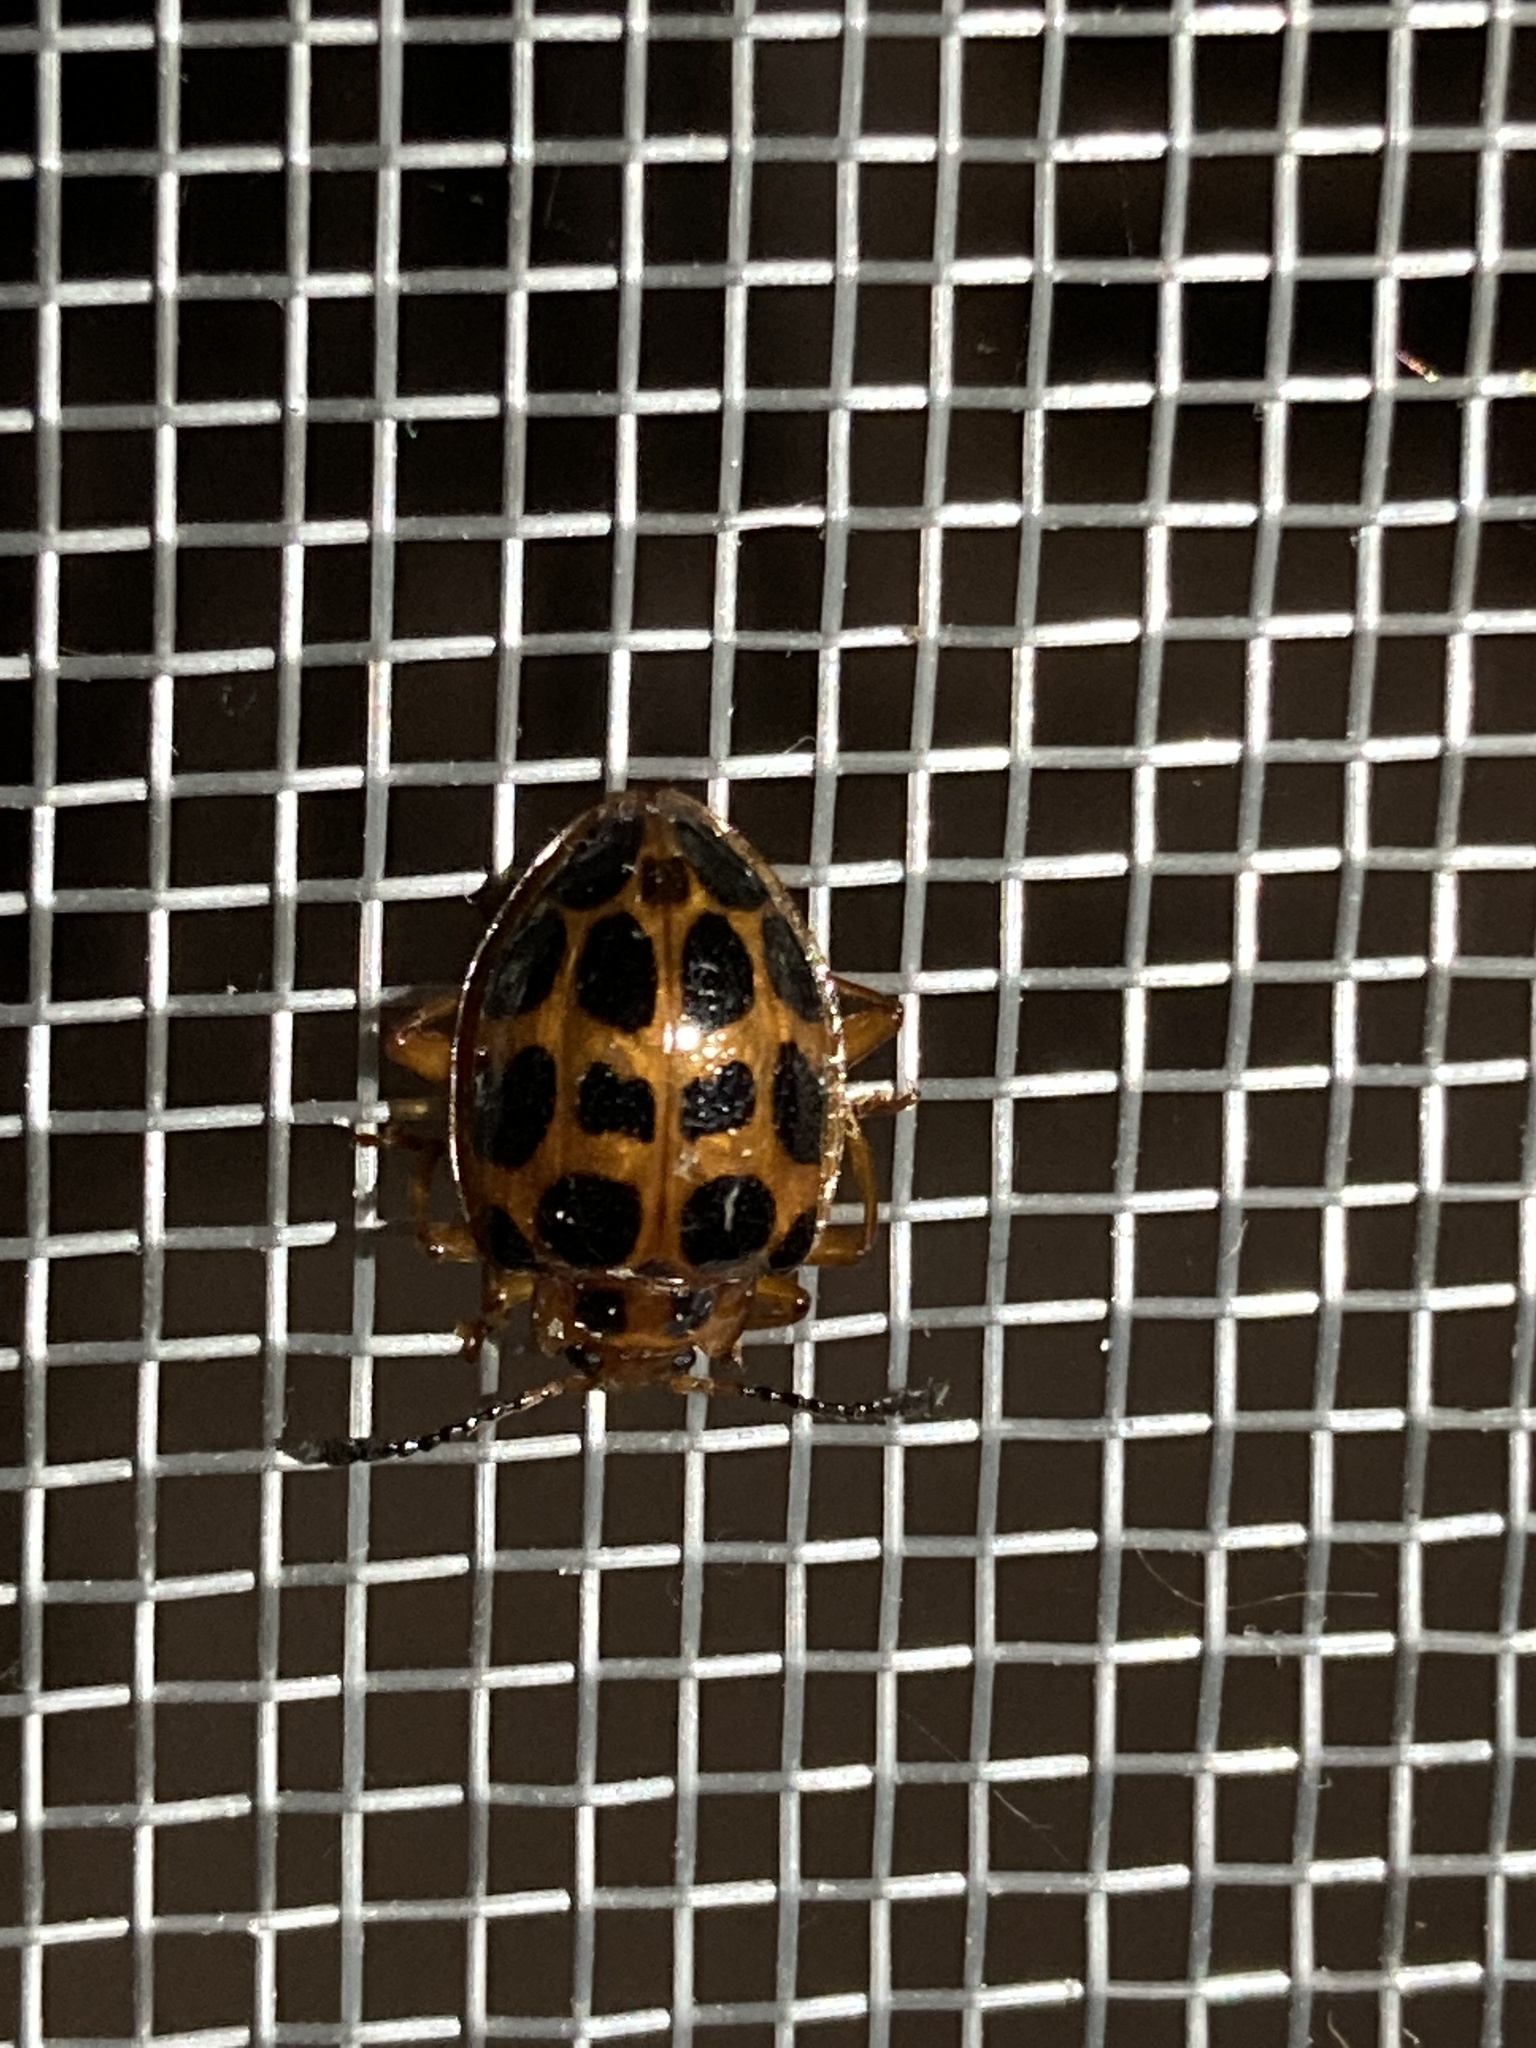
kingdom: Animalia
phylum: Arthropoda
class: Insecta
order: Coleoptera
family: Endomychidae
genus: Corynomalus
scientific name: Corynomalus
